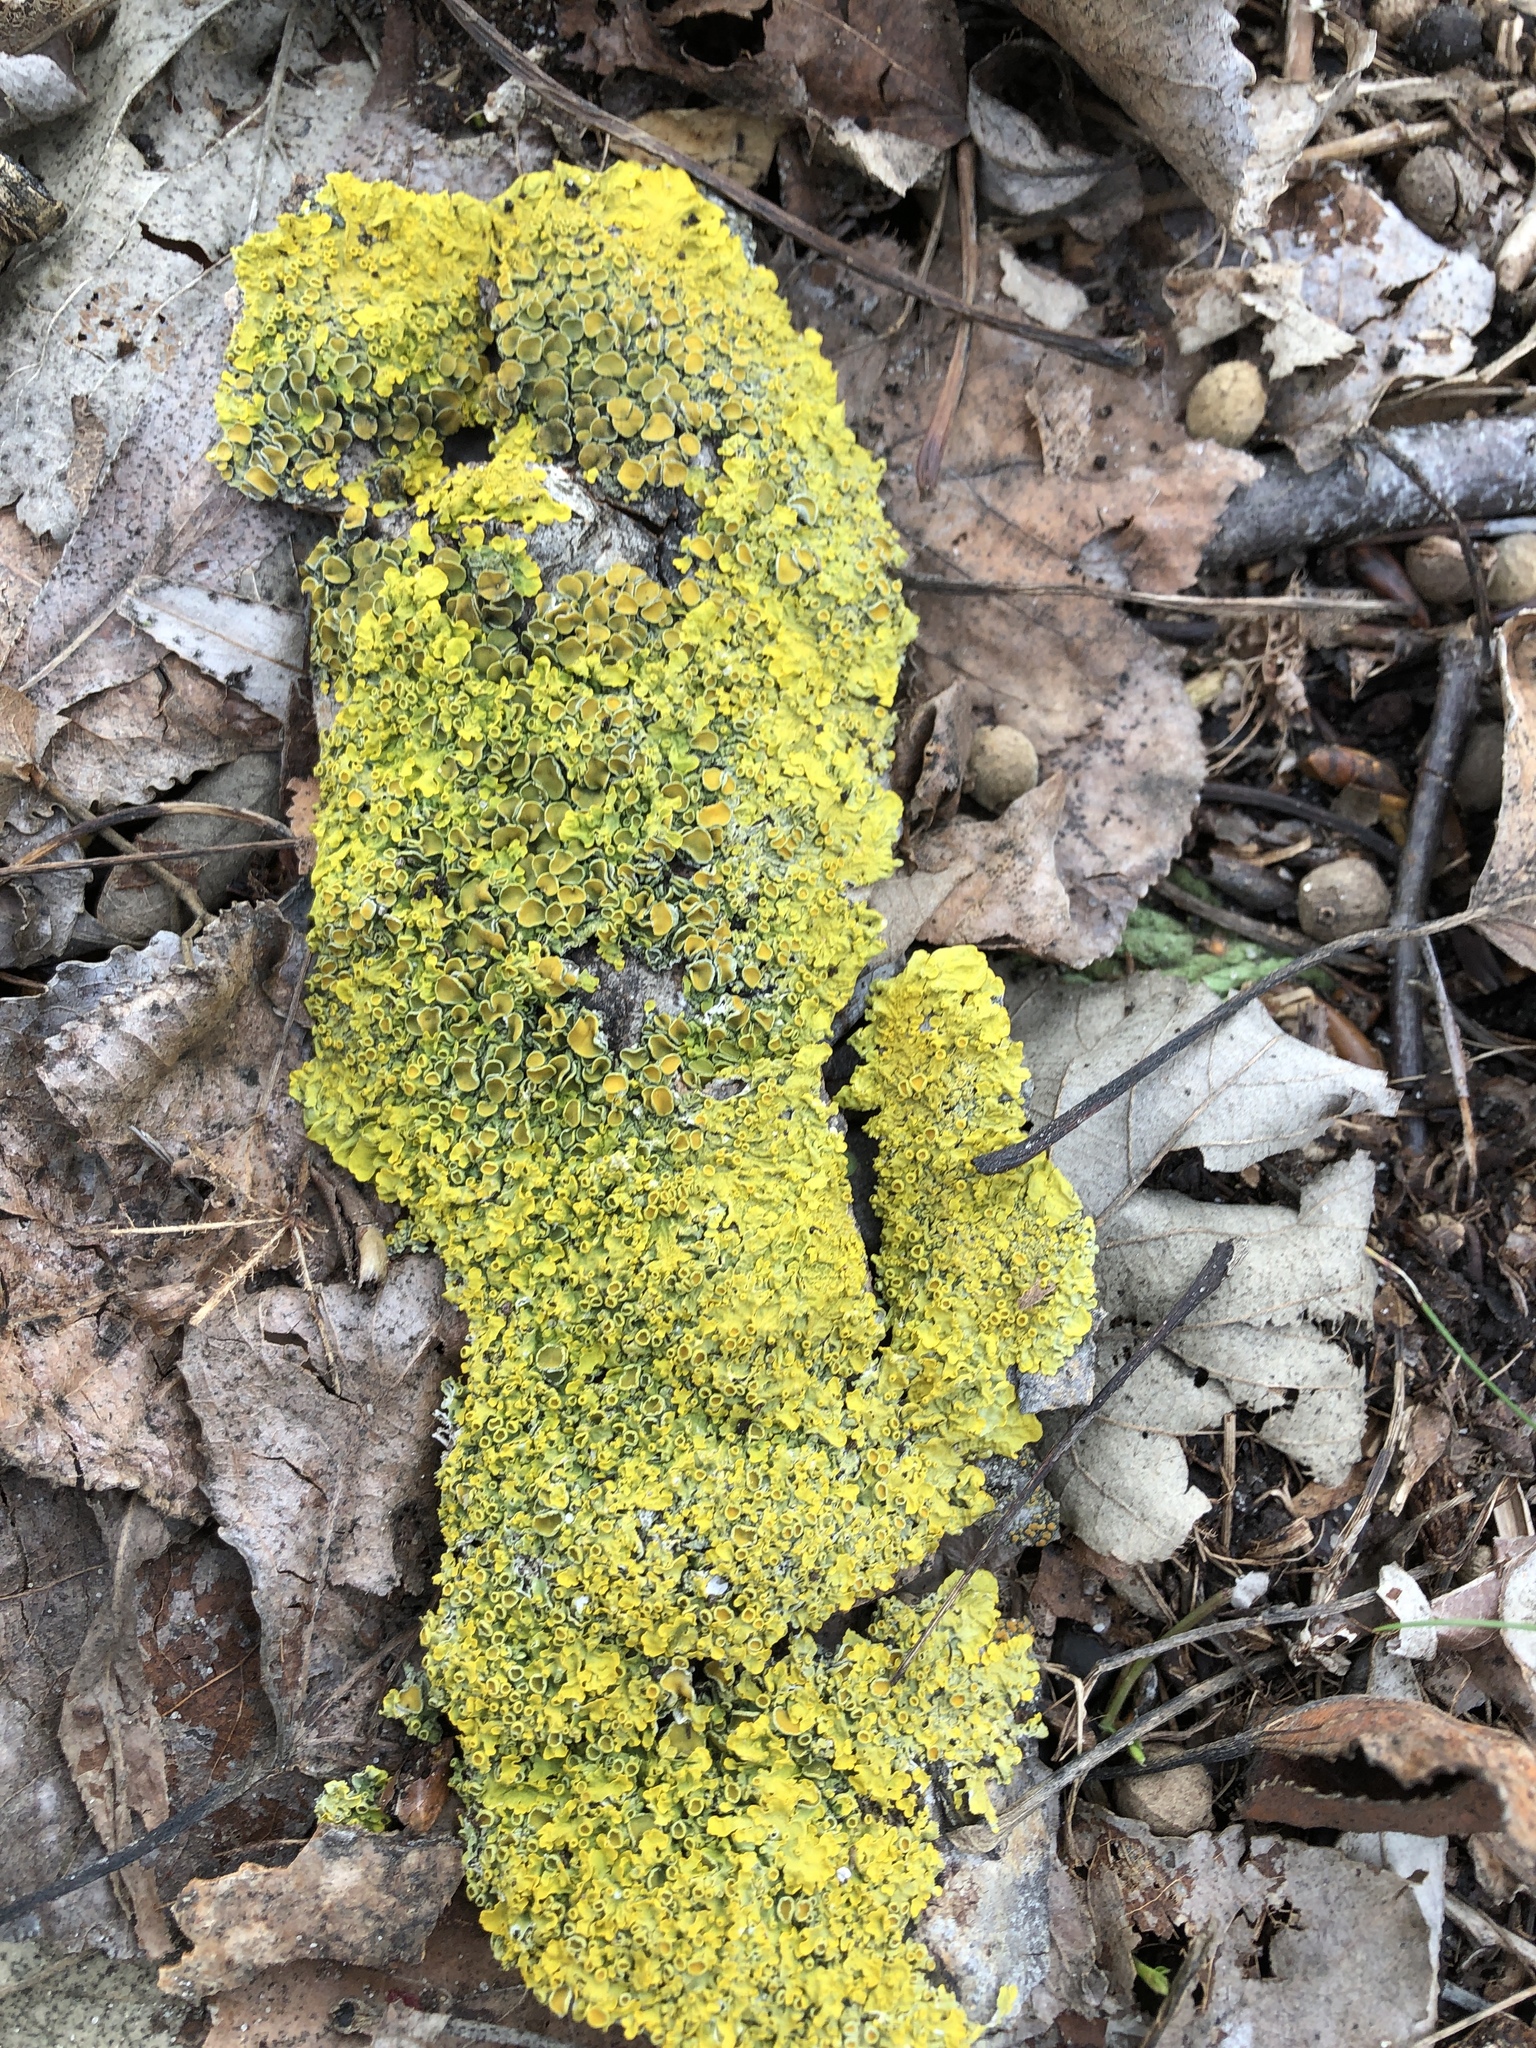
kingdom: Fungi
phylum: Ascomycota
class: Lecanoromycetes
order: Teloschistales
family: Teloschistaceae
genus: Xanthoria
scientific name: Xanthoria parietina
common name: Common orange lichen
